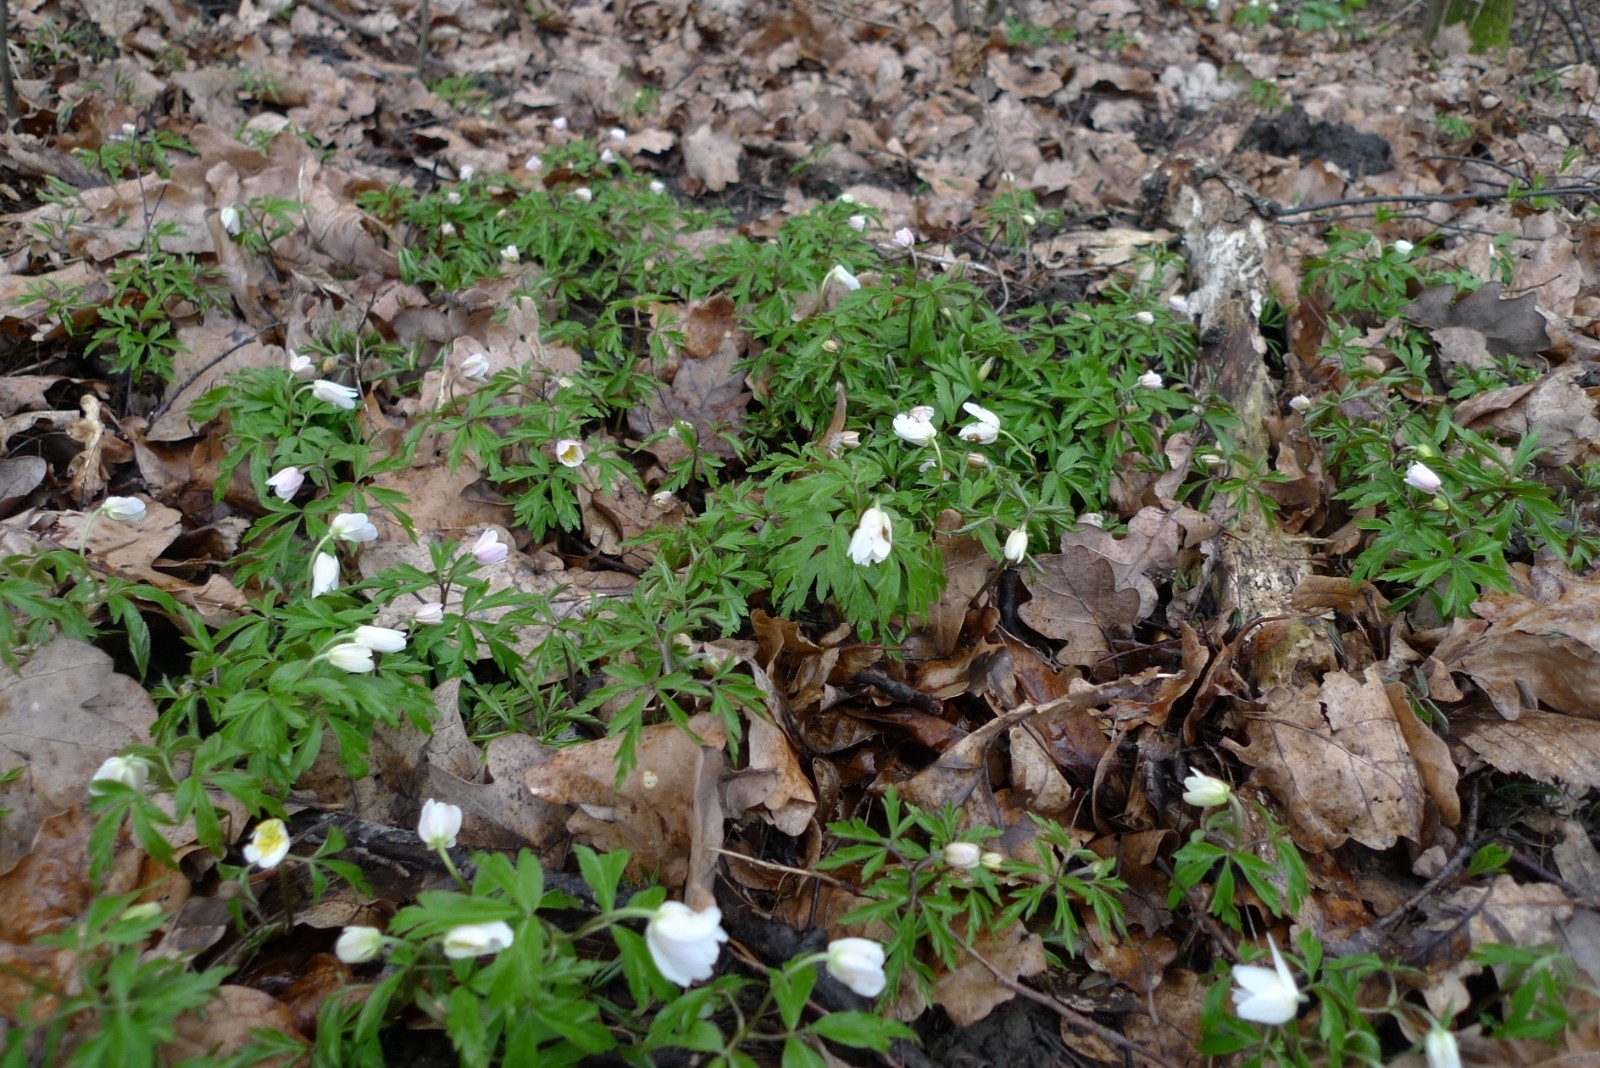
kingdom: Plantae
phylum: Tracheophyta
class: Magnoliopsida
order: Ranunculales
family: Ranunculaceae
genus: Anemone
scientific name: Anemone nemorosa
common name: Wood anemone
